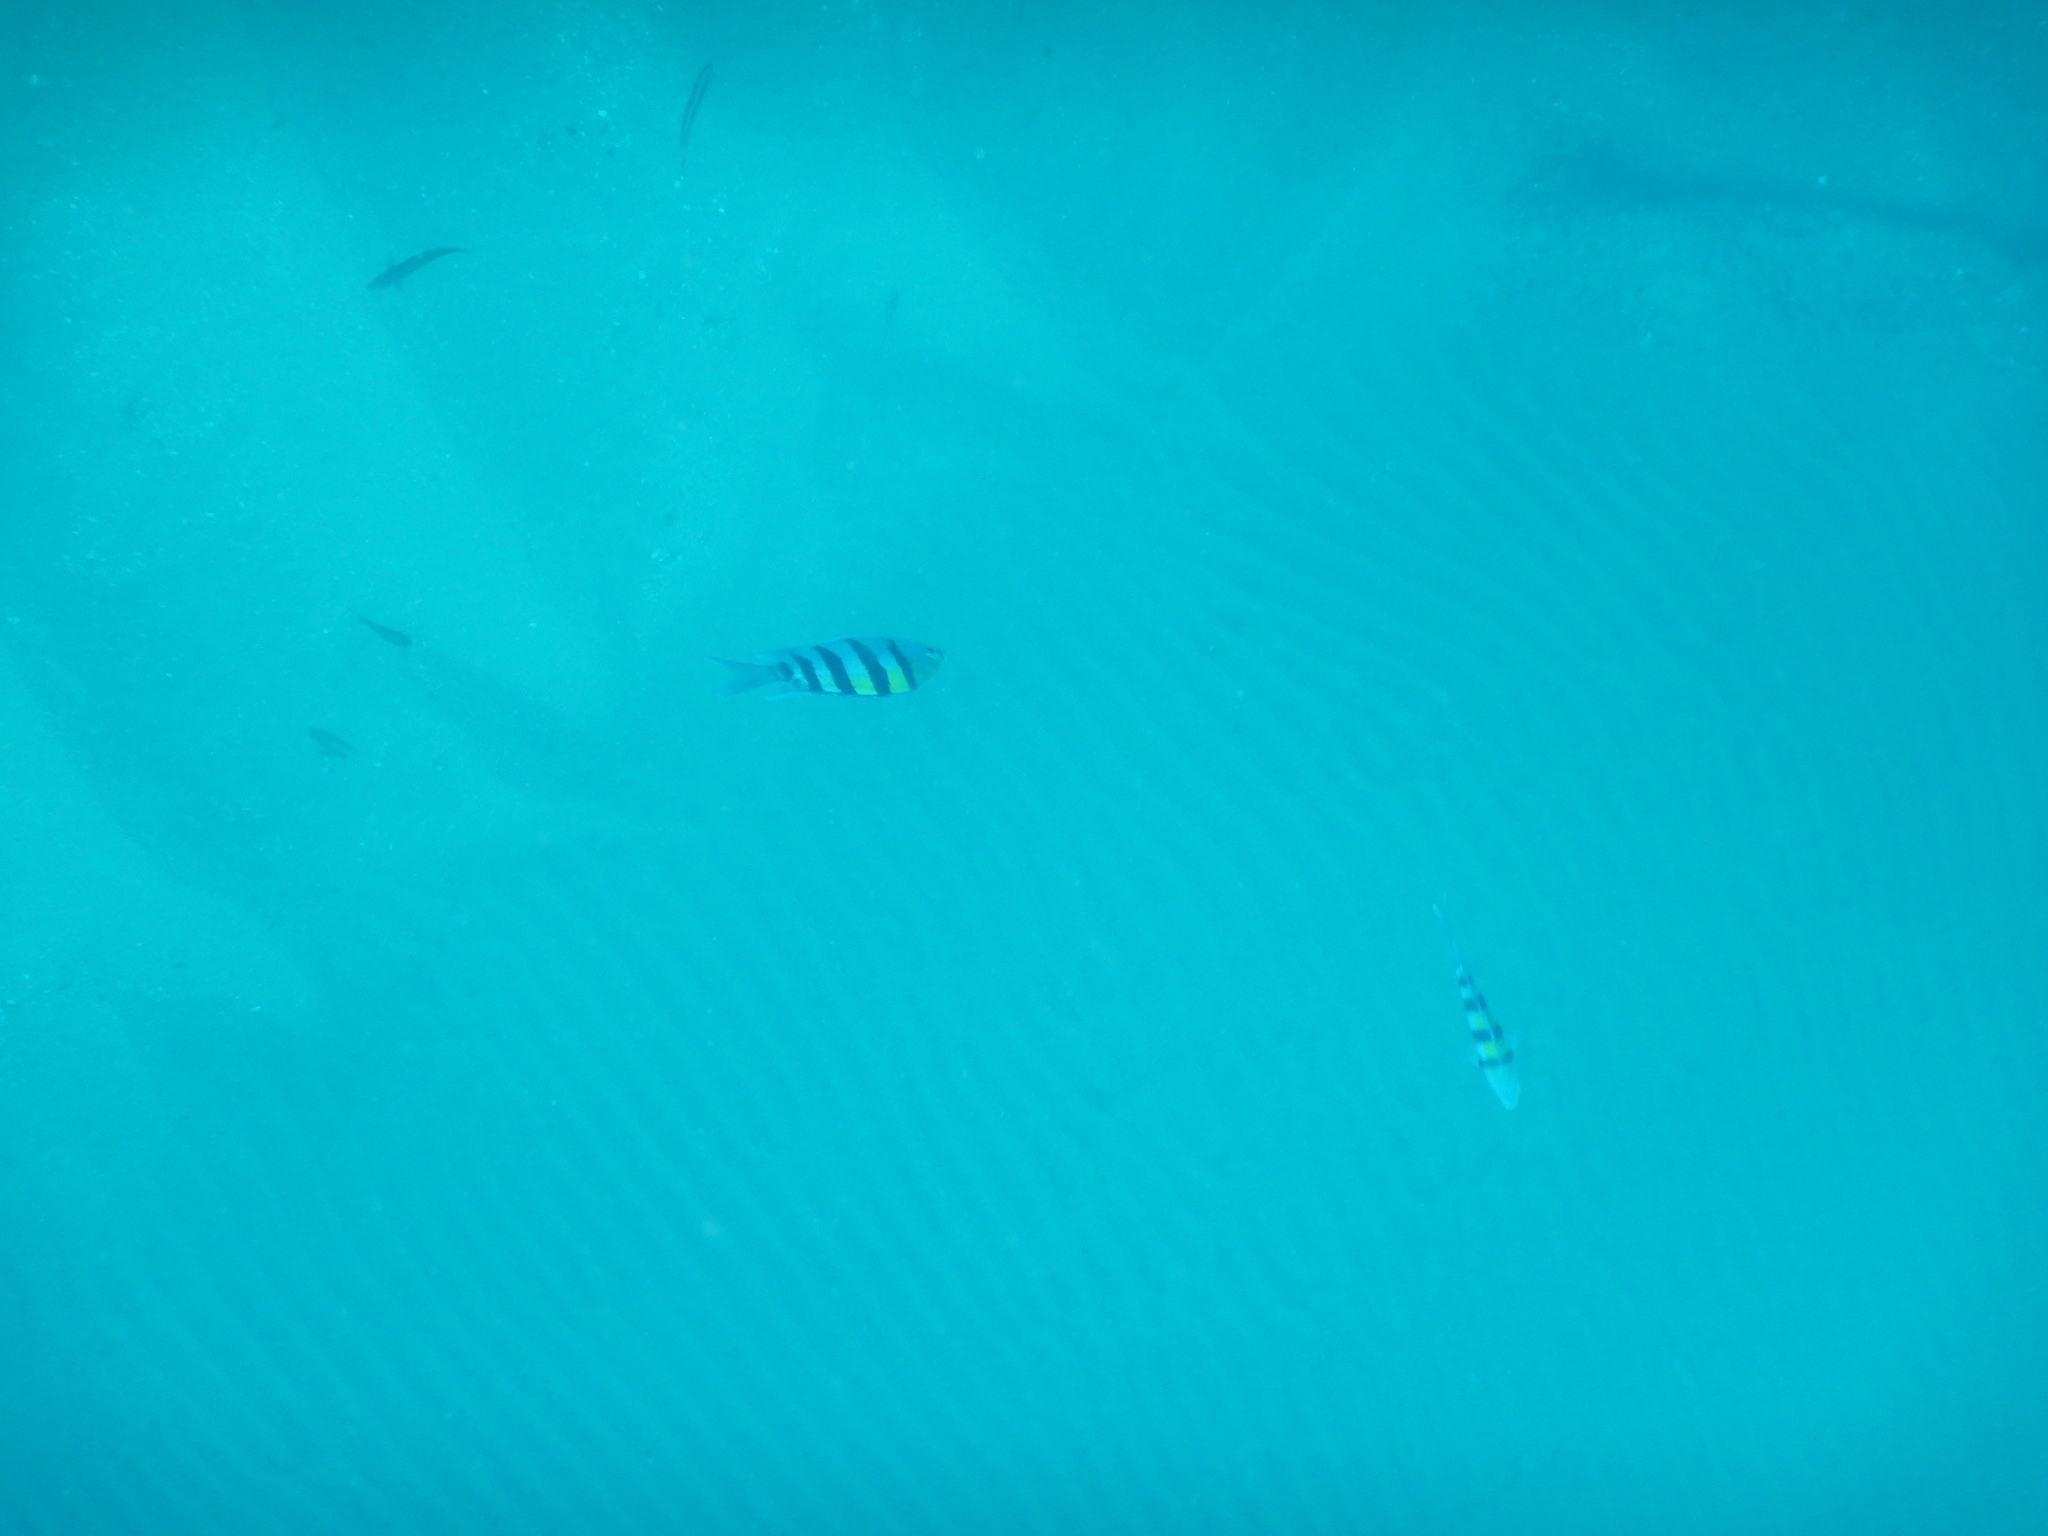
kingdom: Animalia
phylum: Chordata
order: Perciformes
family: Pomacentridae
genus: Abudefduf
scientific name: Abudefduf vaigiensis
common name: Indo-pacific sergeant
